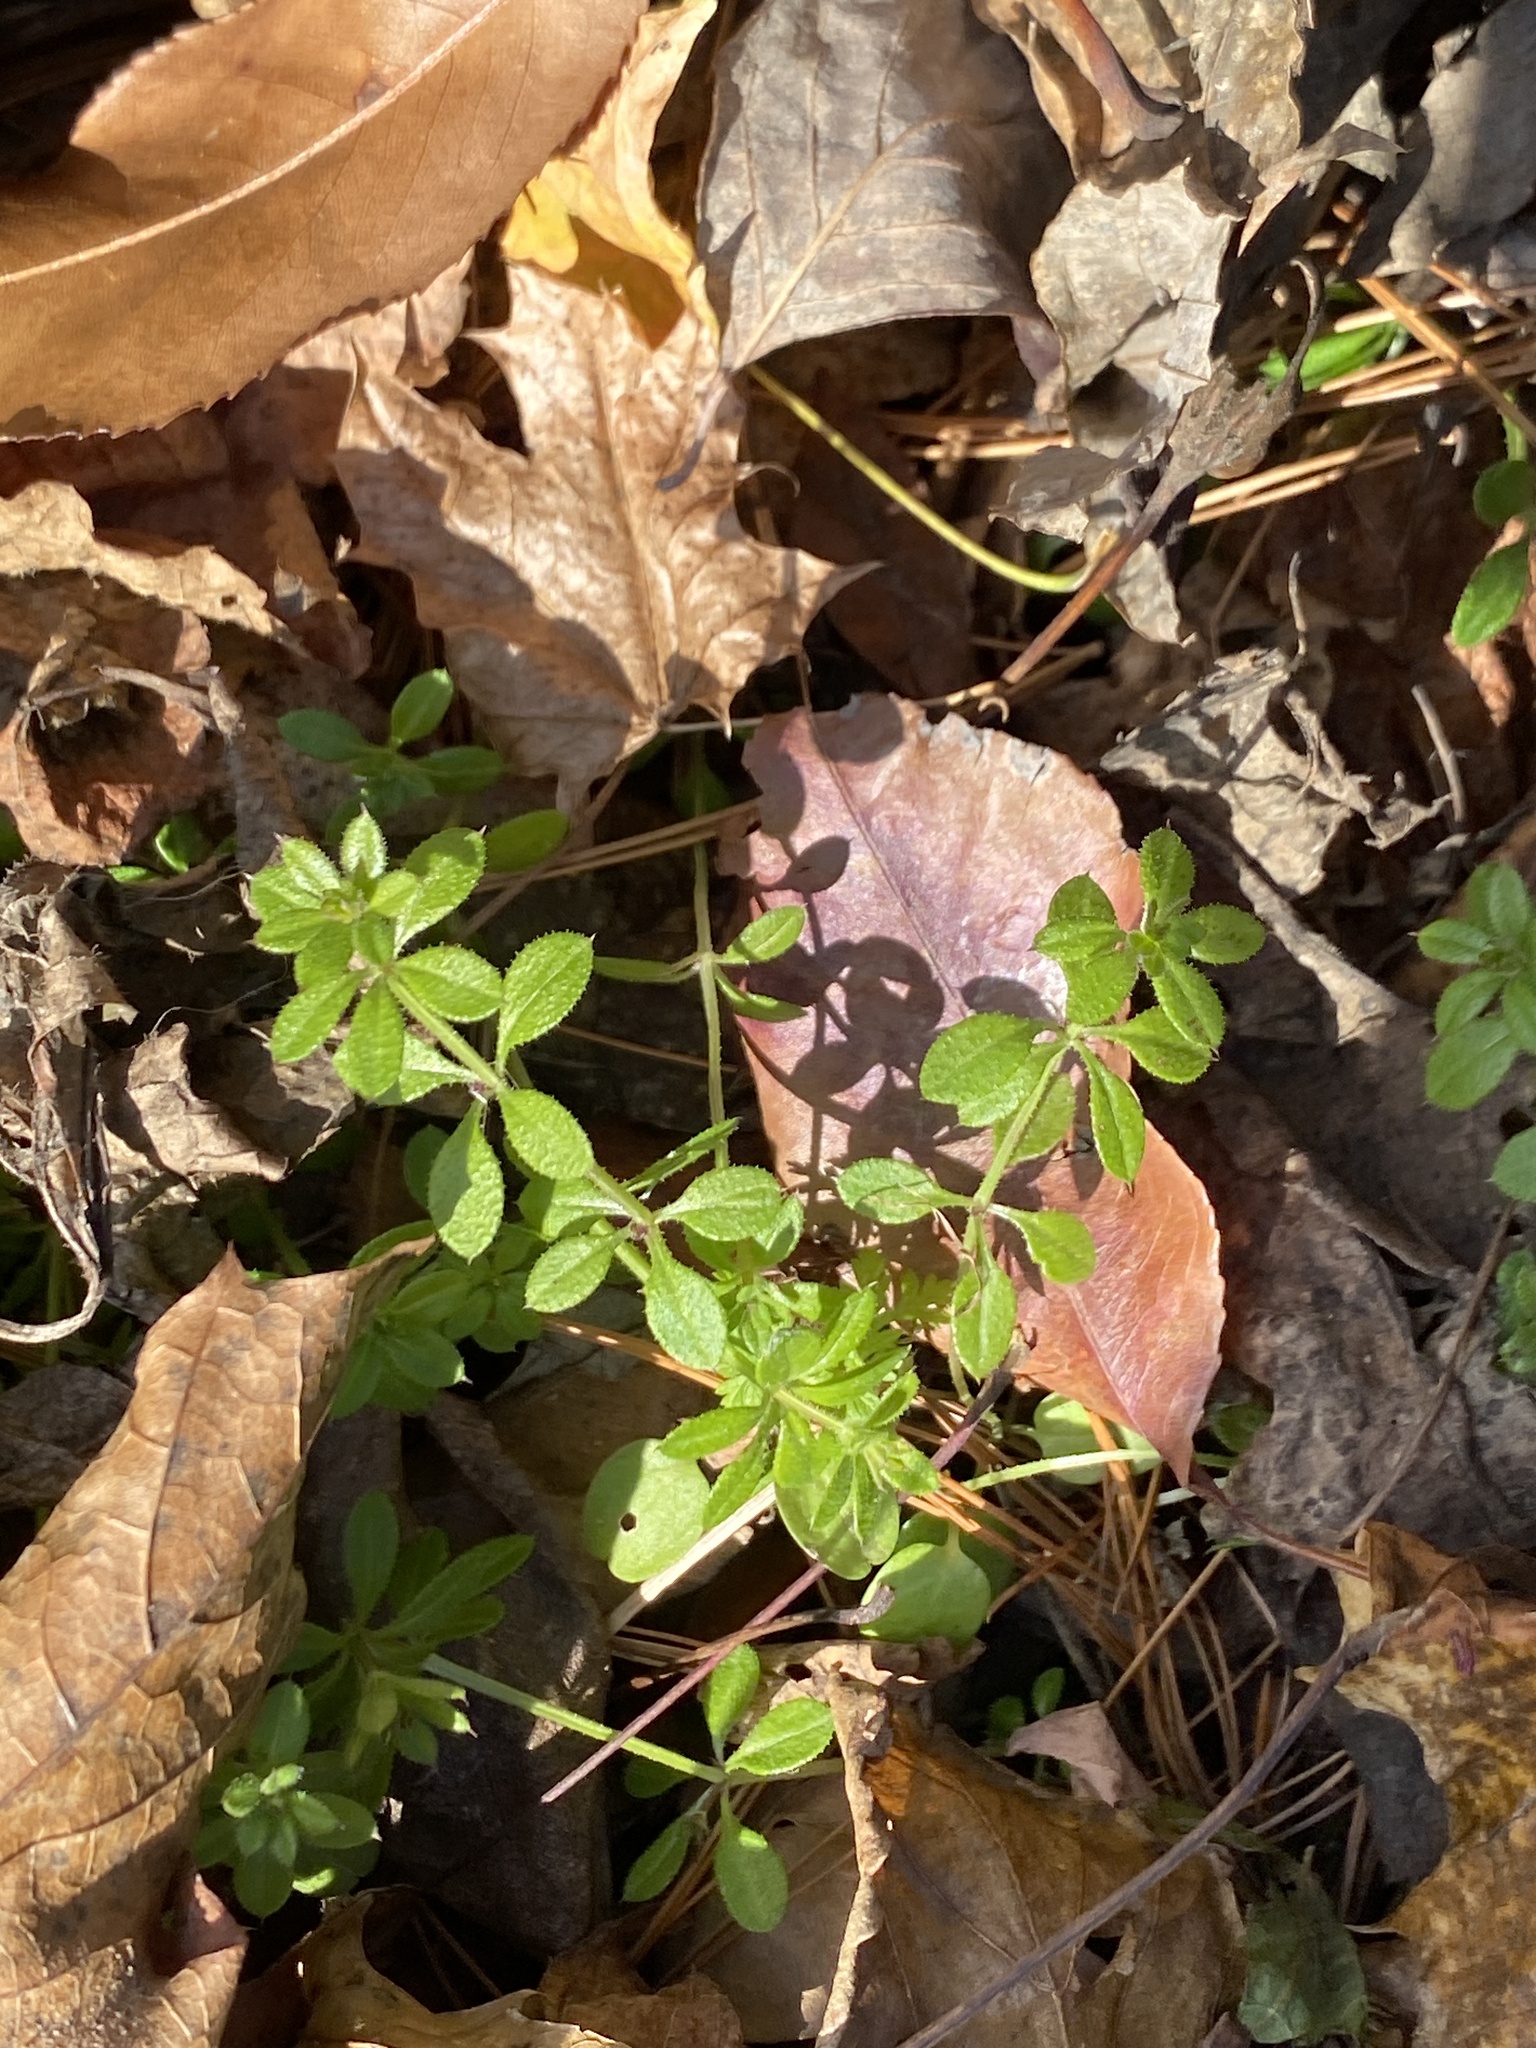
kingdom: Plantae
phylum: Tracheophyta
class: Magnoliopsida
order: Gentianales
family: Rubiaceae
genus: Galium
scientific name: Galium aparine
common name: Cleavers
